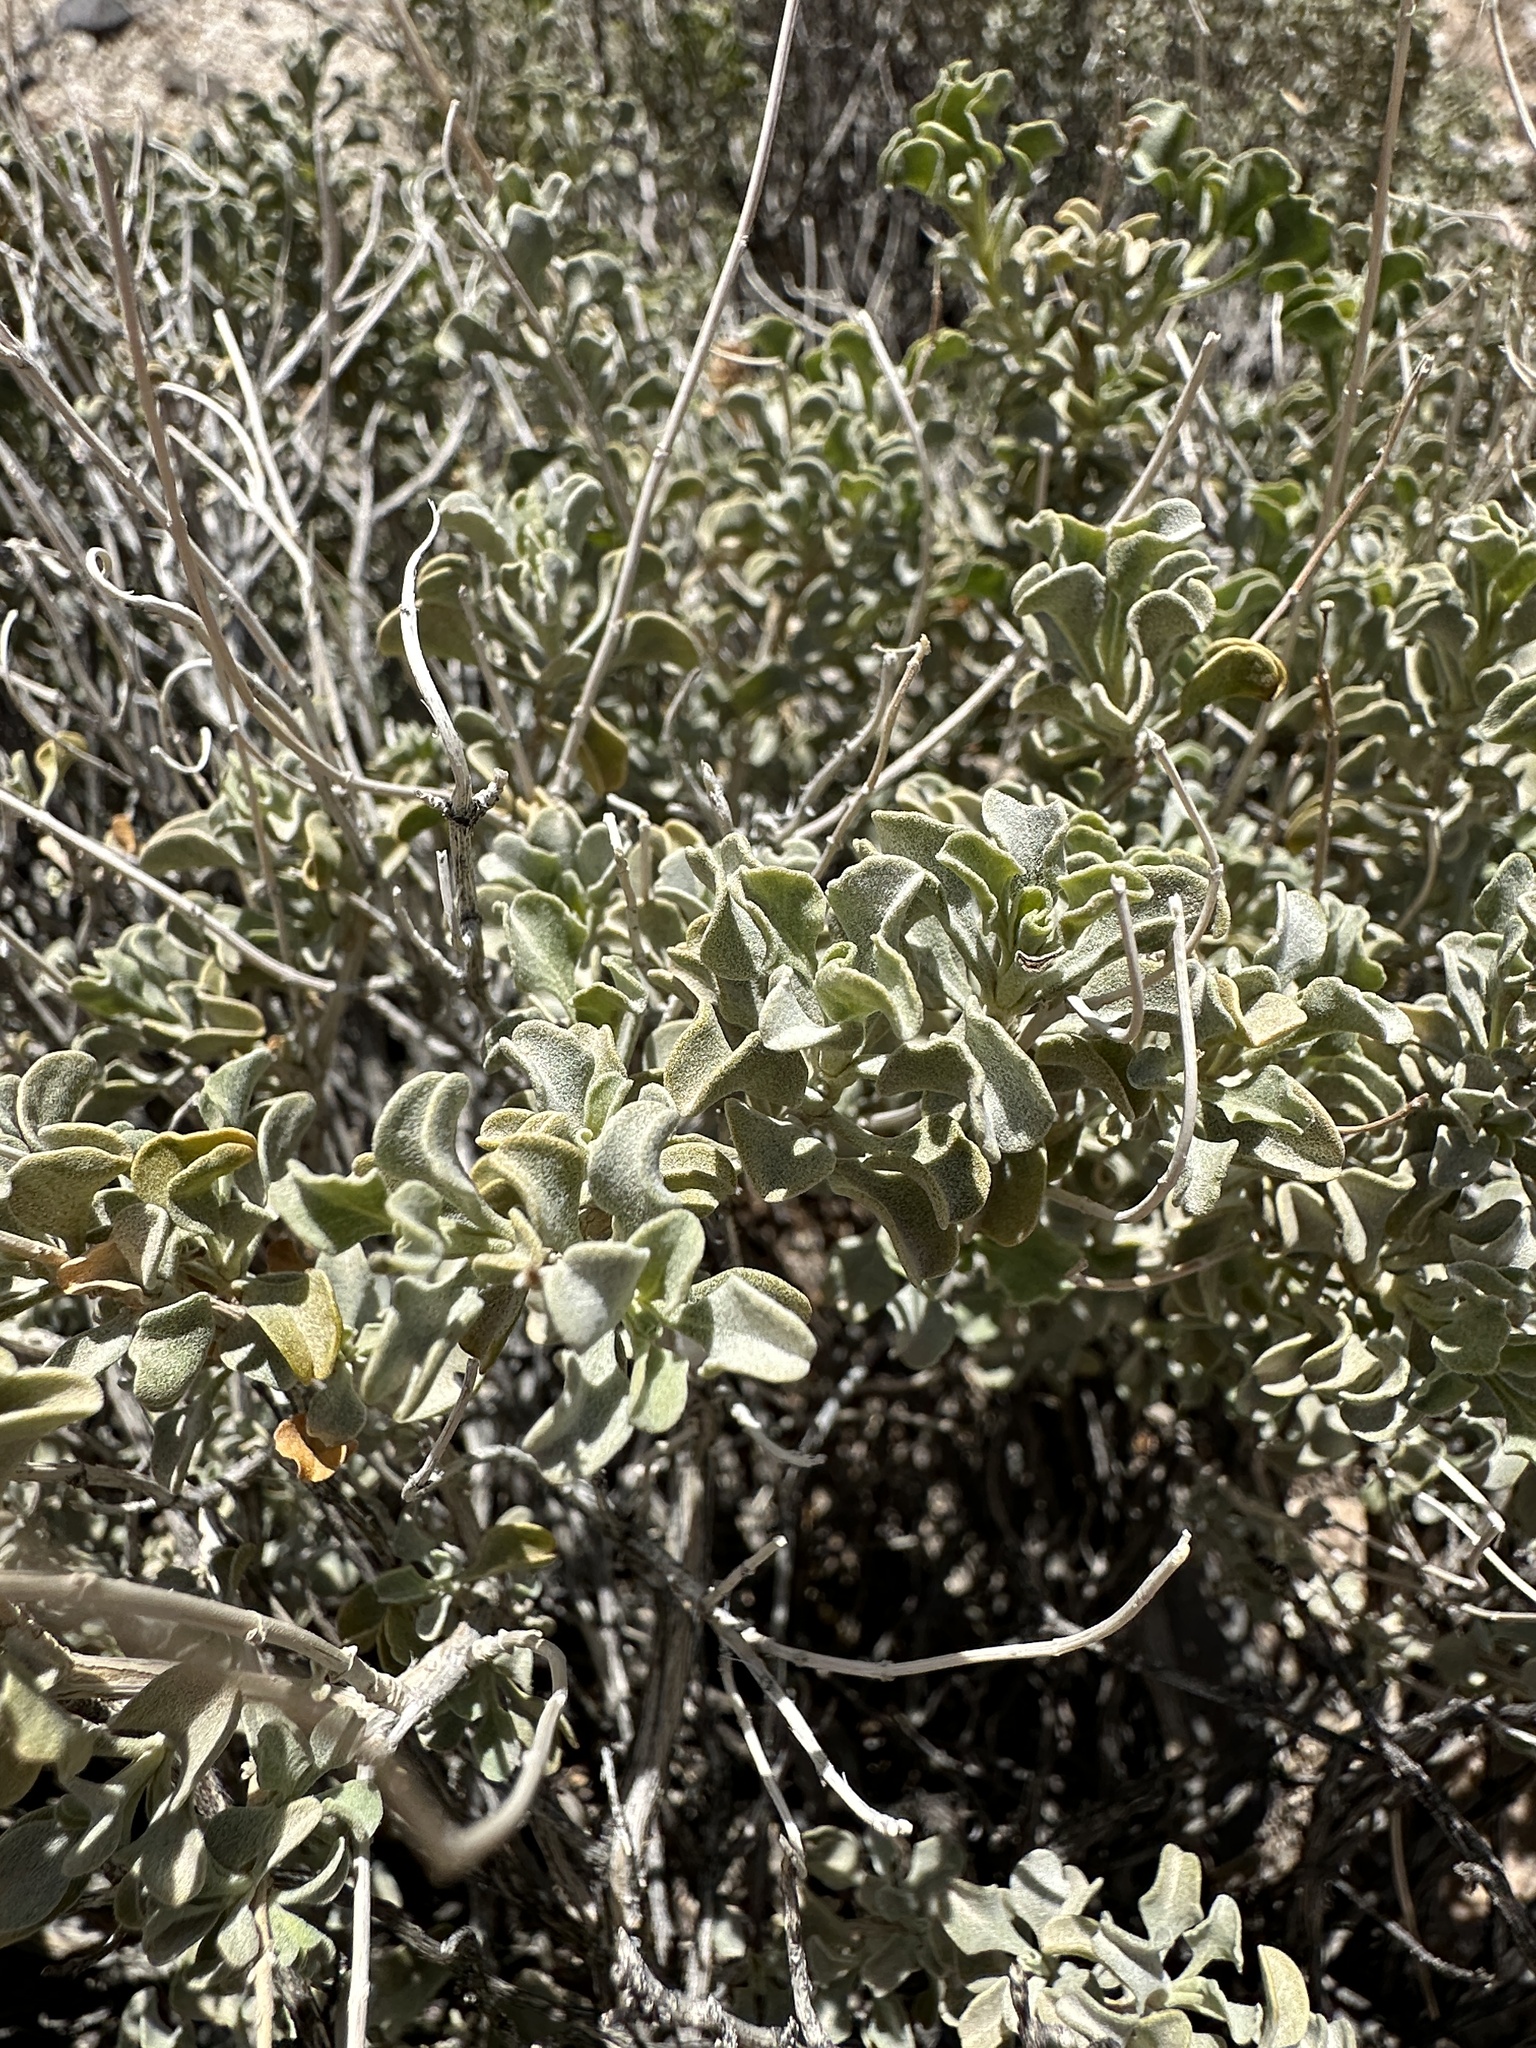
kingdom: Plantae
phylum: Tracheophyta
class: Magnoliopsida
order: Lamiales
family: Lamiaceae
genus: Salvia
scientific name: Salvia dorrii
